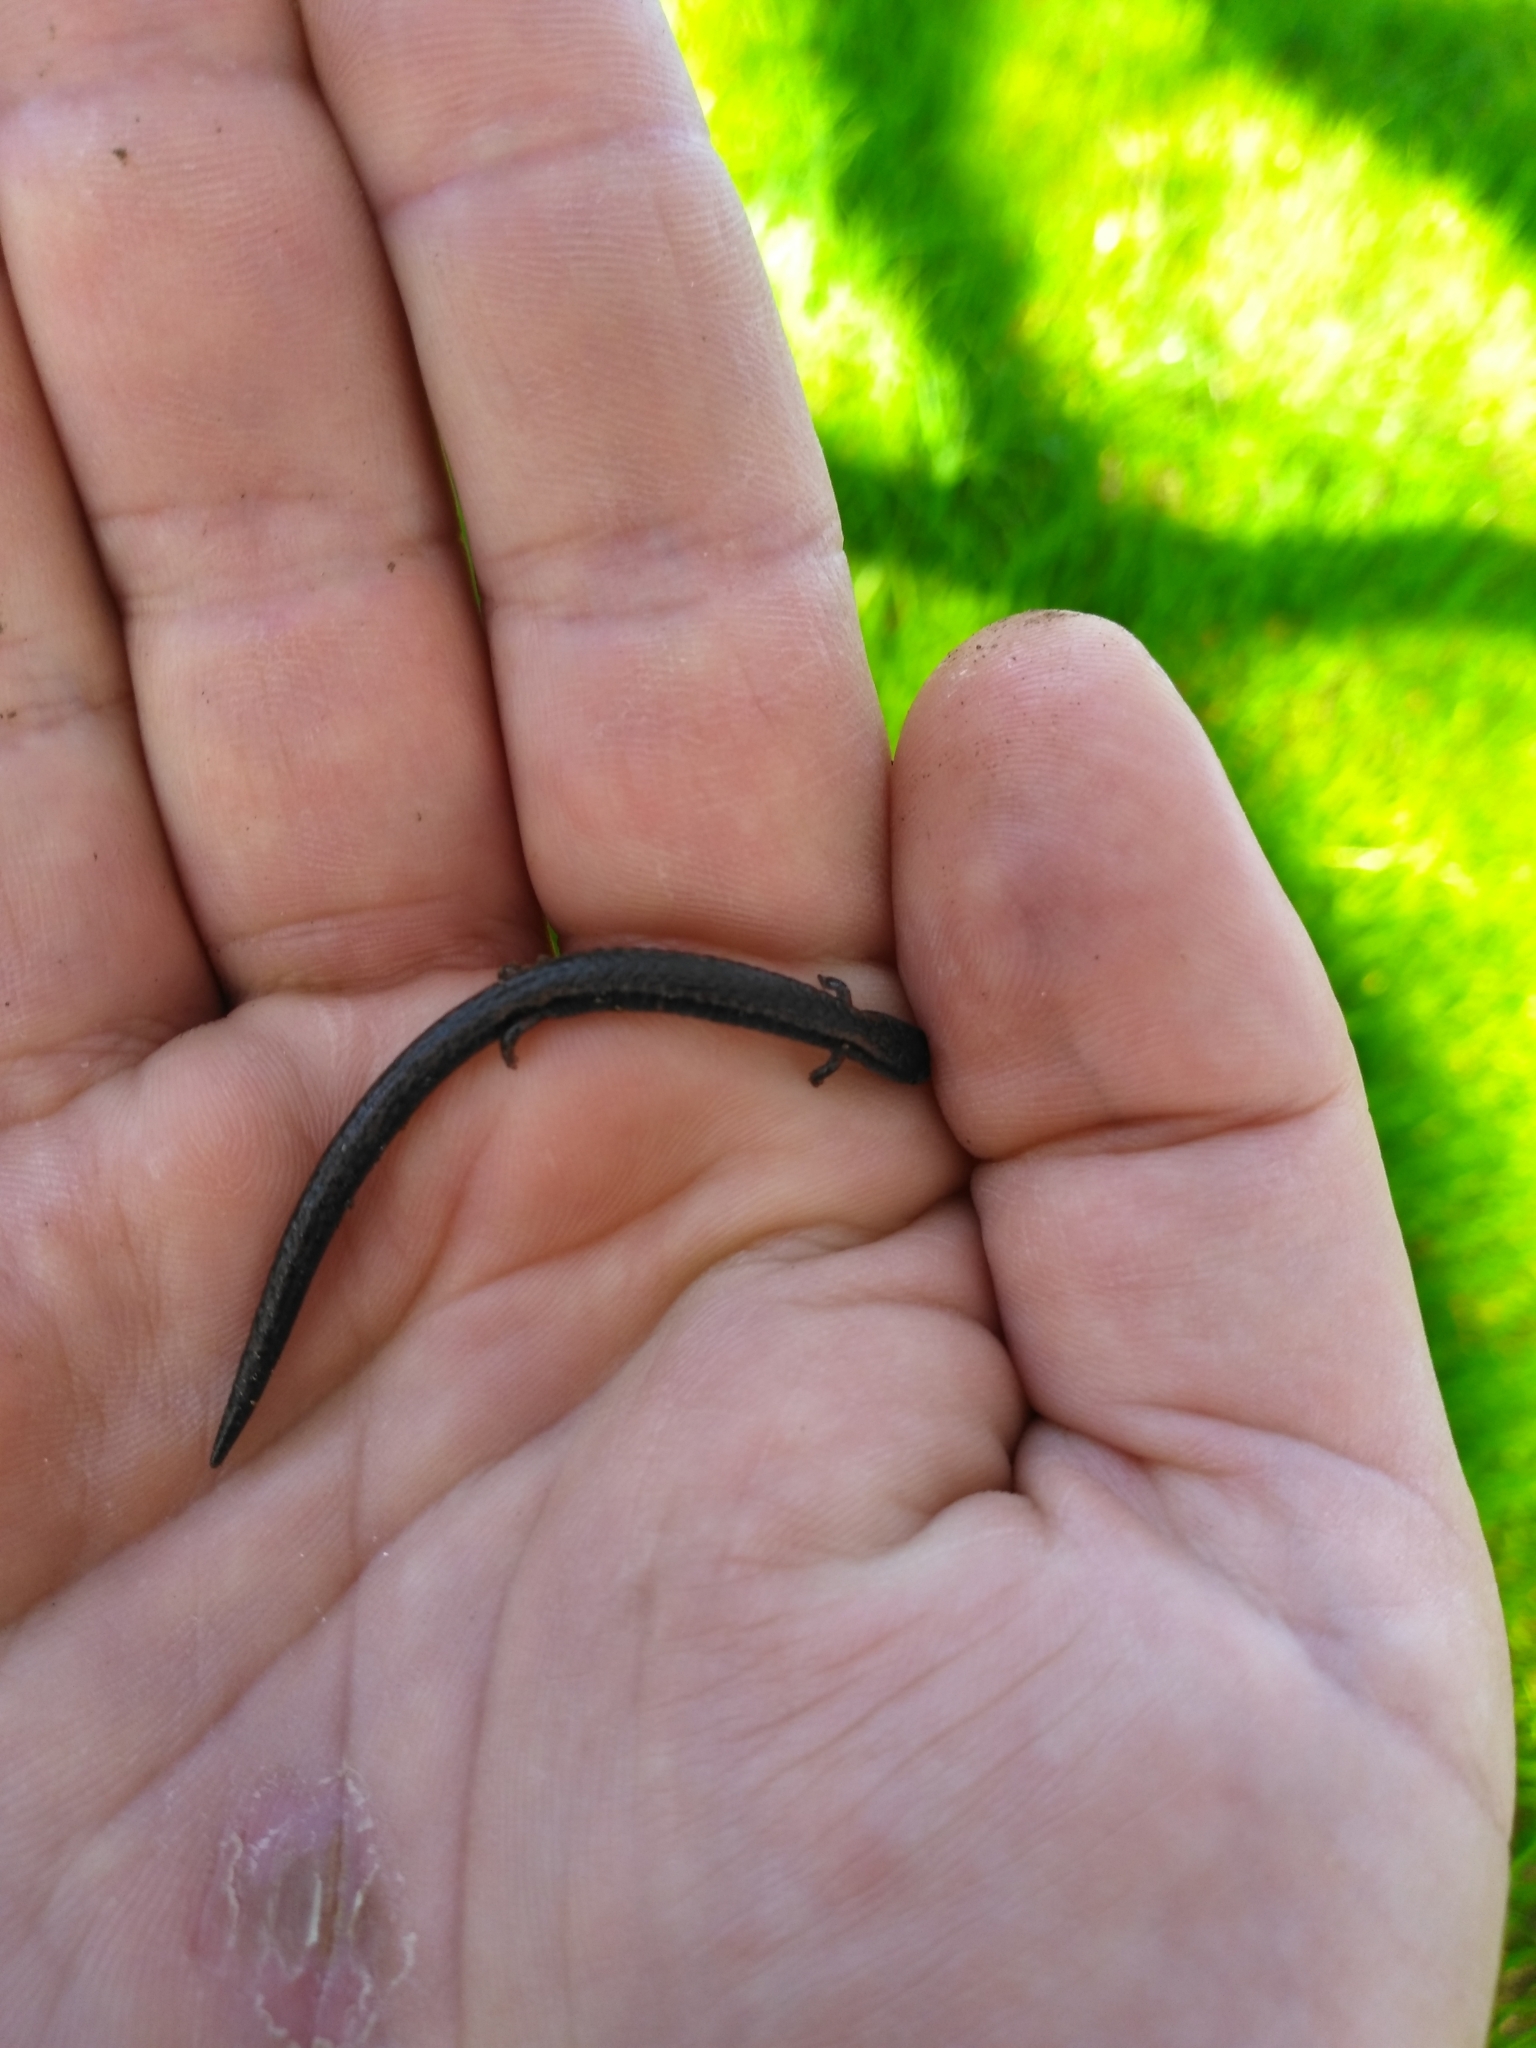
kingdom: Animalia
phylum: Chordata
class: Amphibia
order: Caudata
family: Plethodontidae
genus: Batrachoseps
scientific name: Batrachoseps attenuatus
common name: California slender salamander
